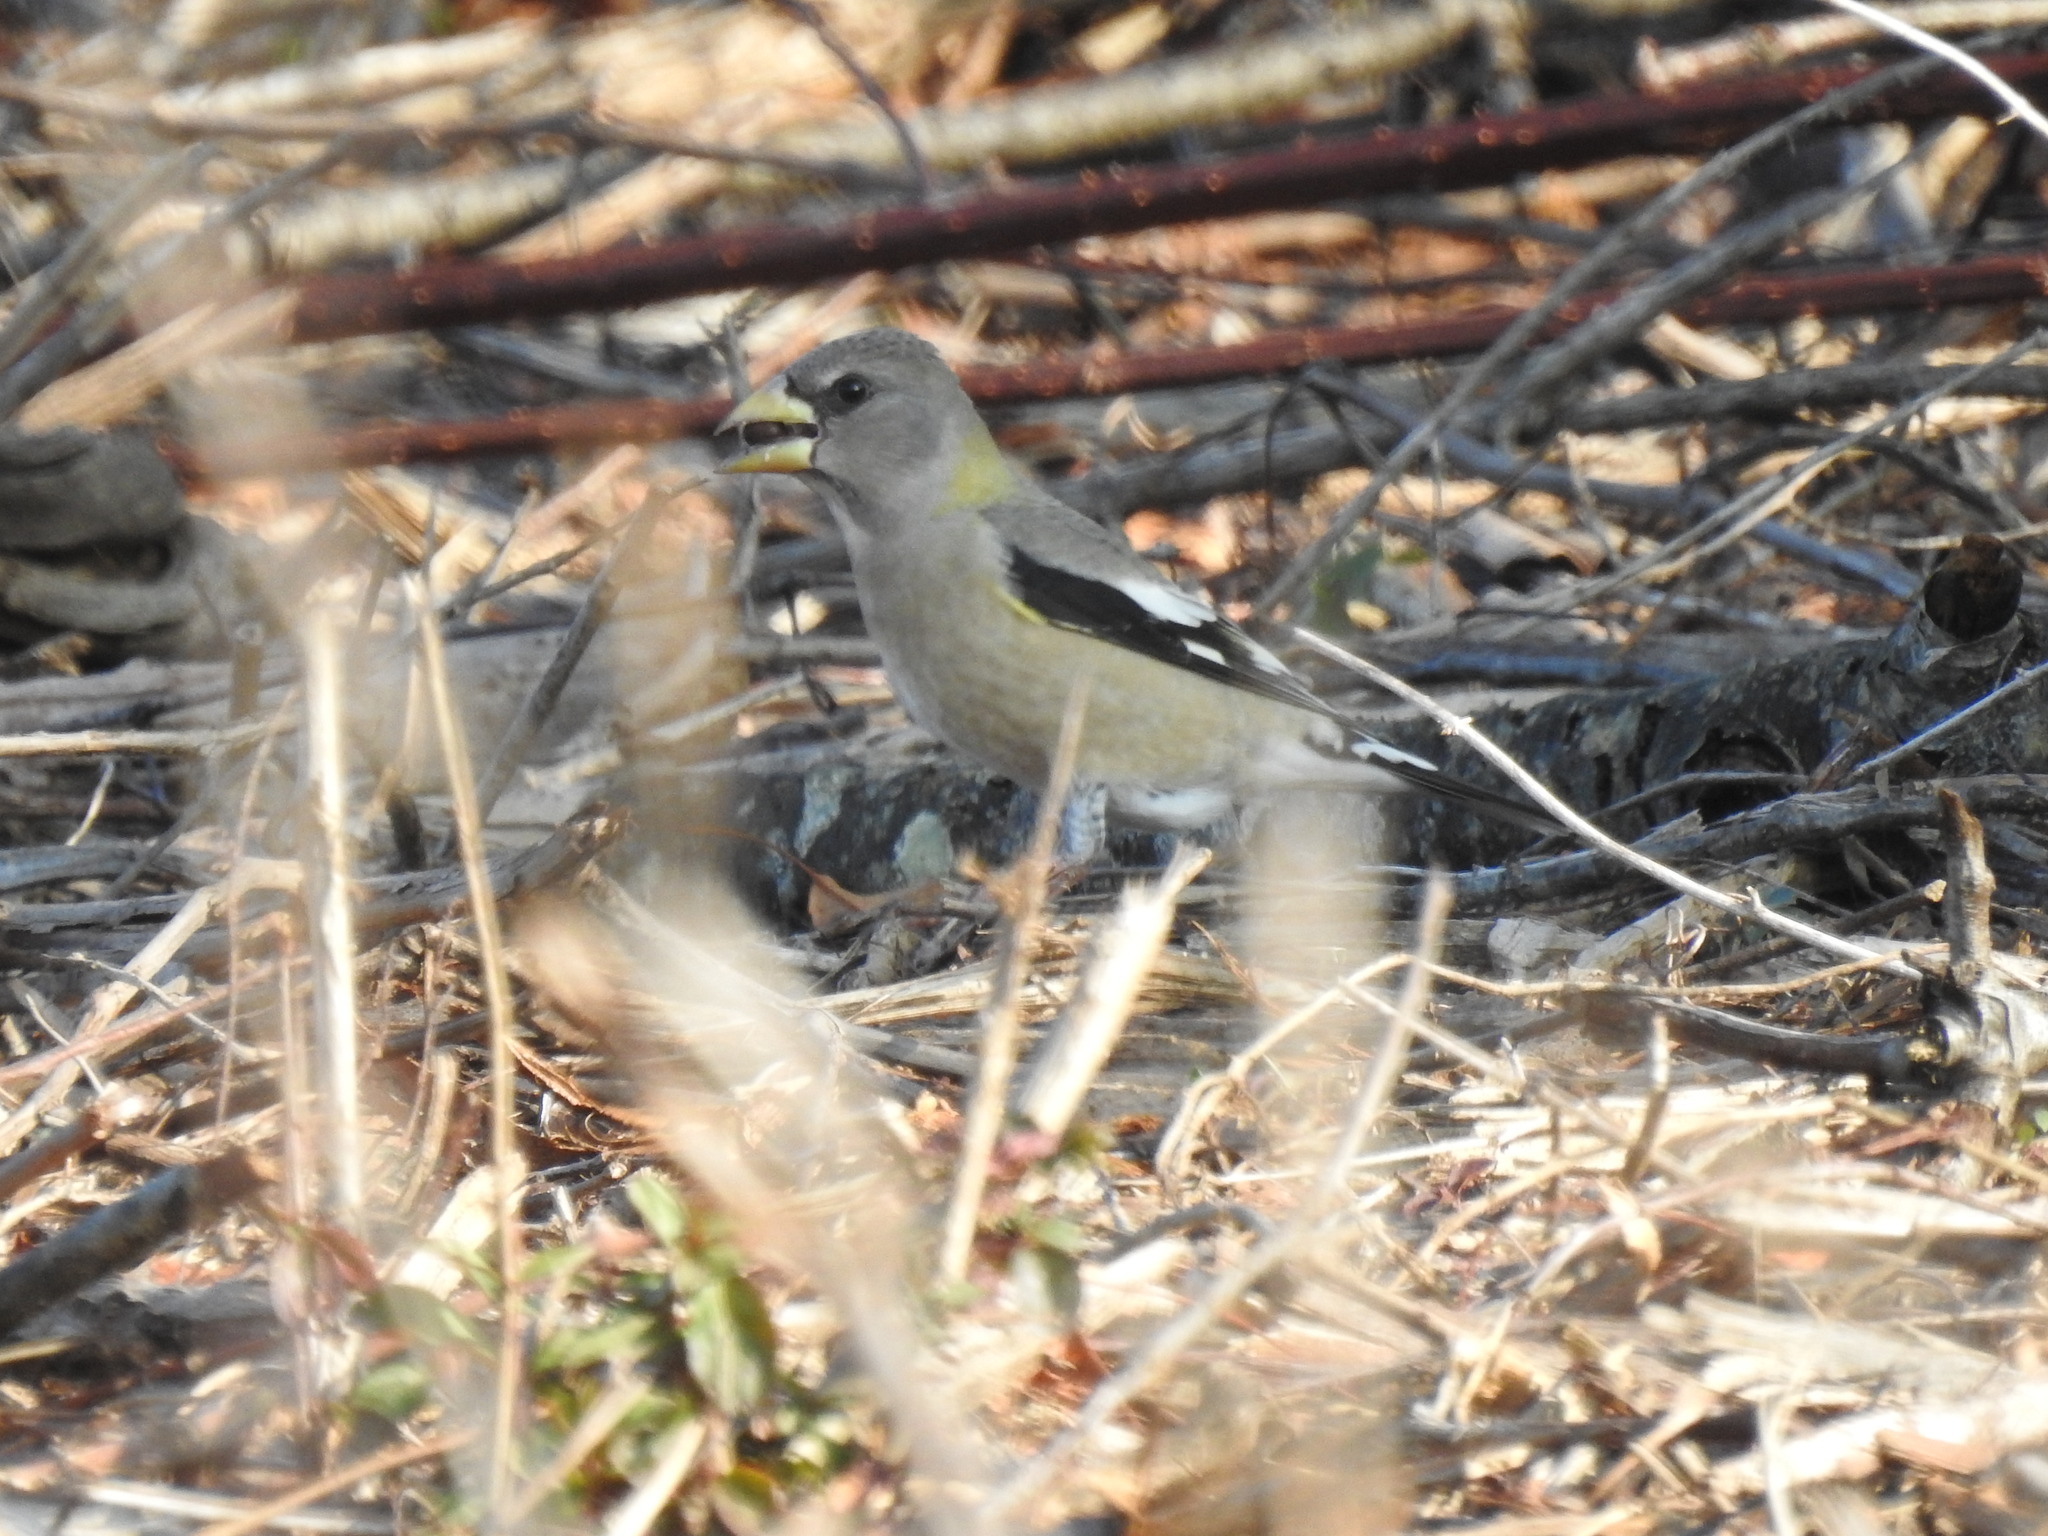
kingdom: Animalia
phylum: Chordata
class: Aves
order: Passeriformes
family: Fringillidae
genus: Hesperiphona
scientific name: Hesperiphona vespertina
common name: Evening grosbeak
